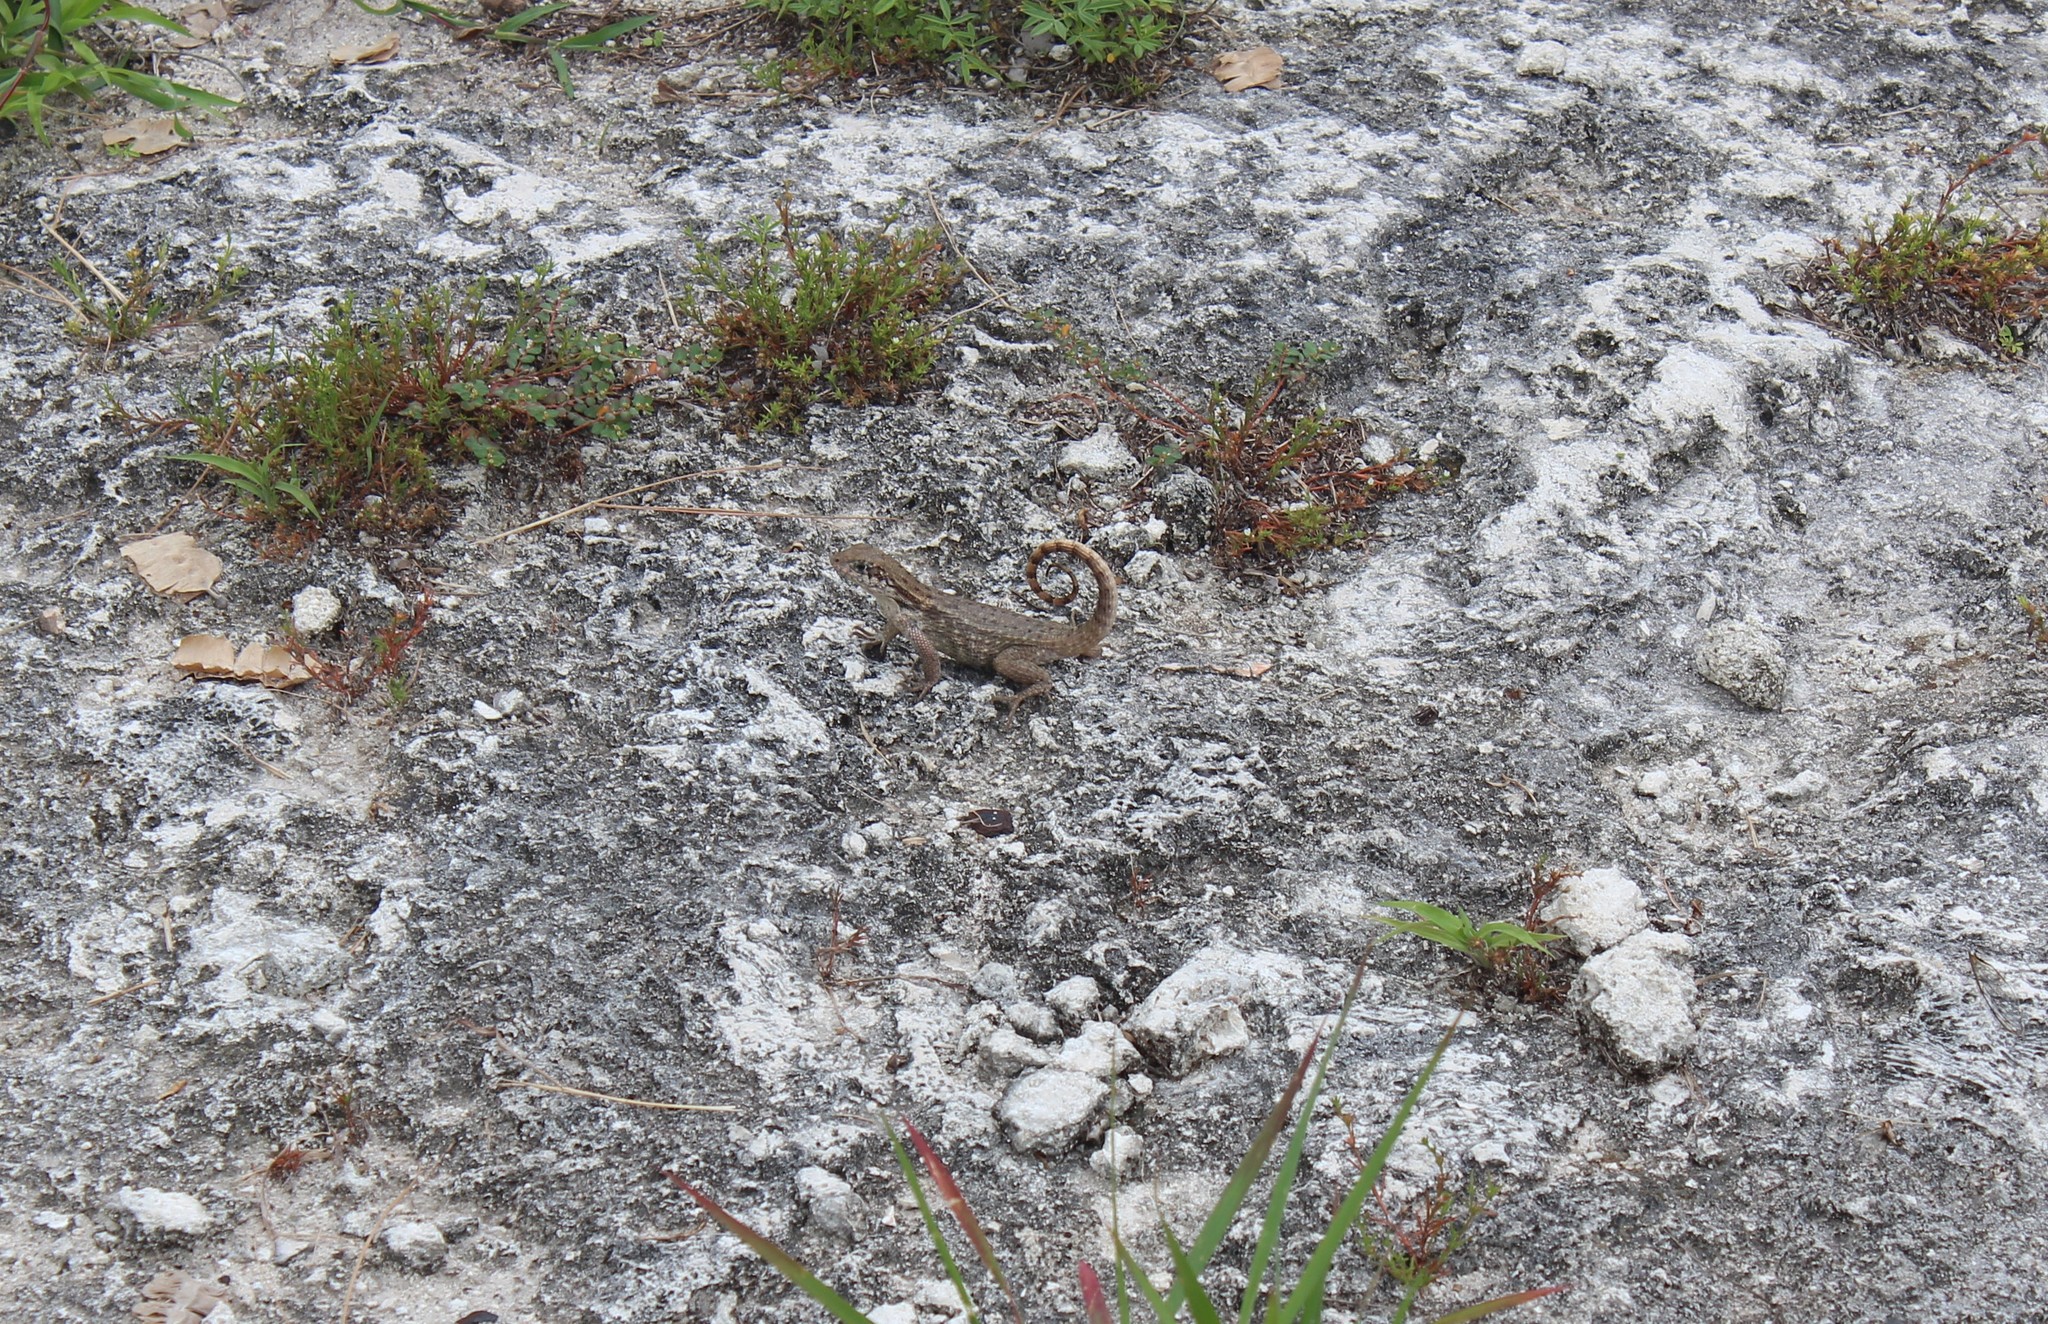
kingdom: Animalia
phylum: Chordata
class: Squamata
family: Leiocephalidae
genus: Leiocephalus
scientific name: Leiocephalus carinatus
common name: Northern curly-tailed lizard
